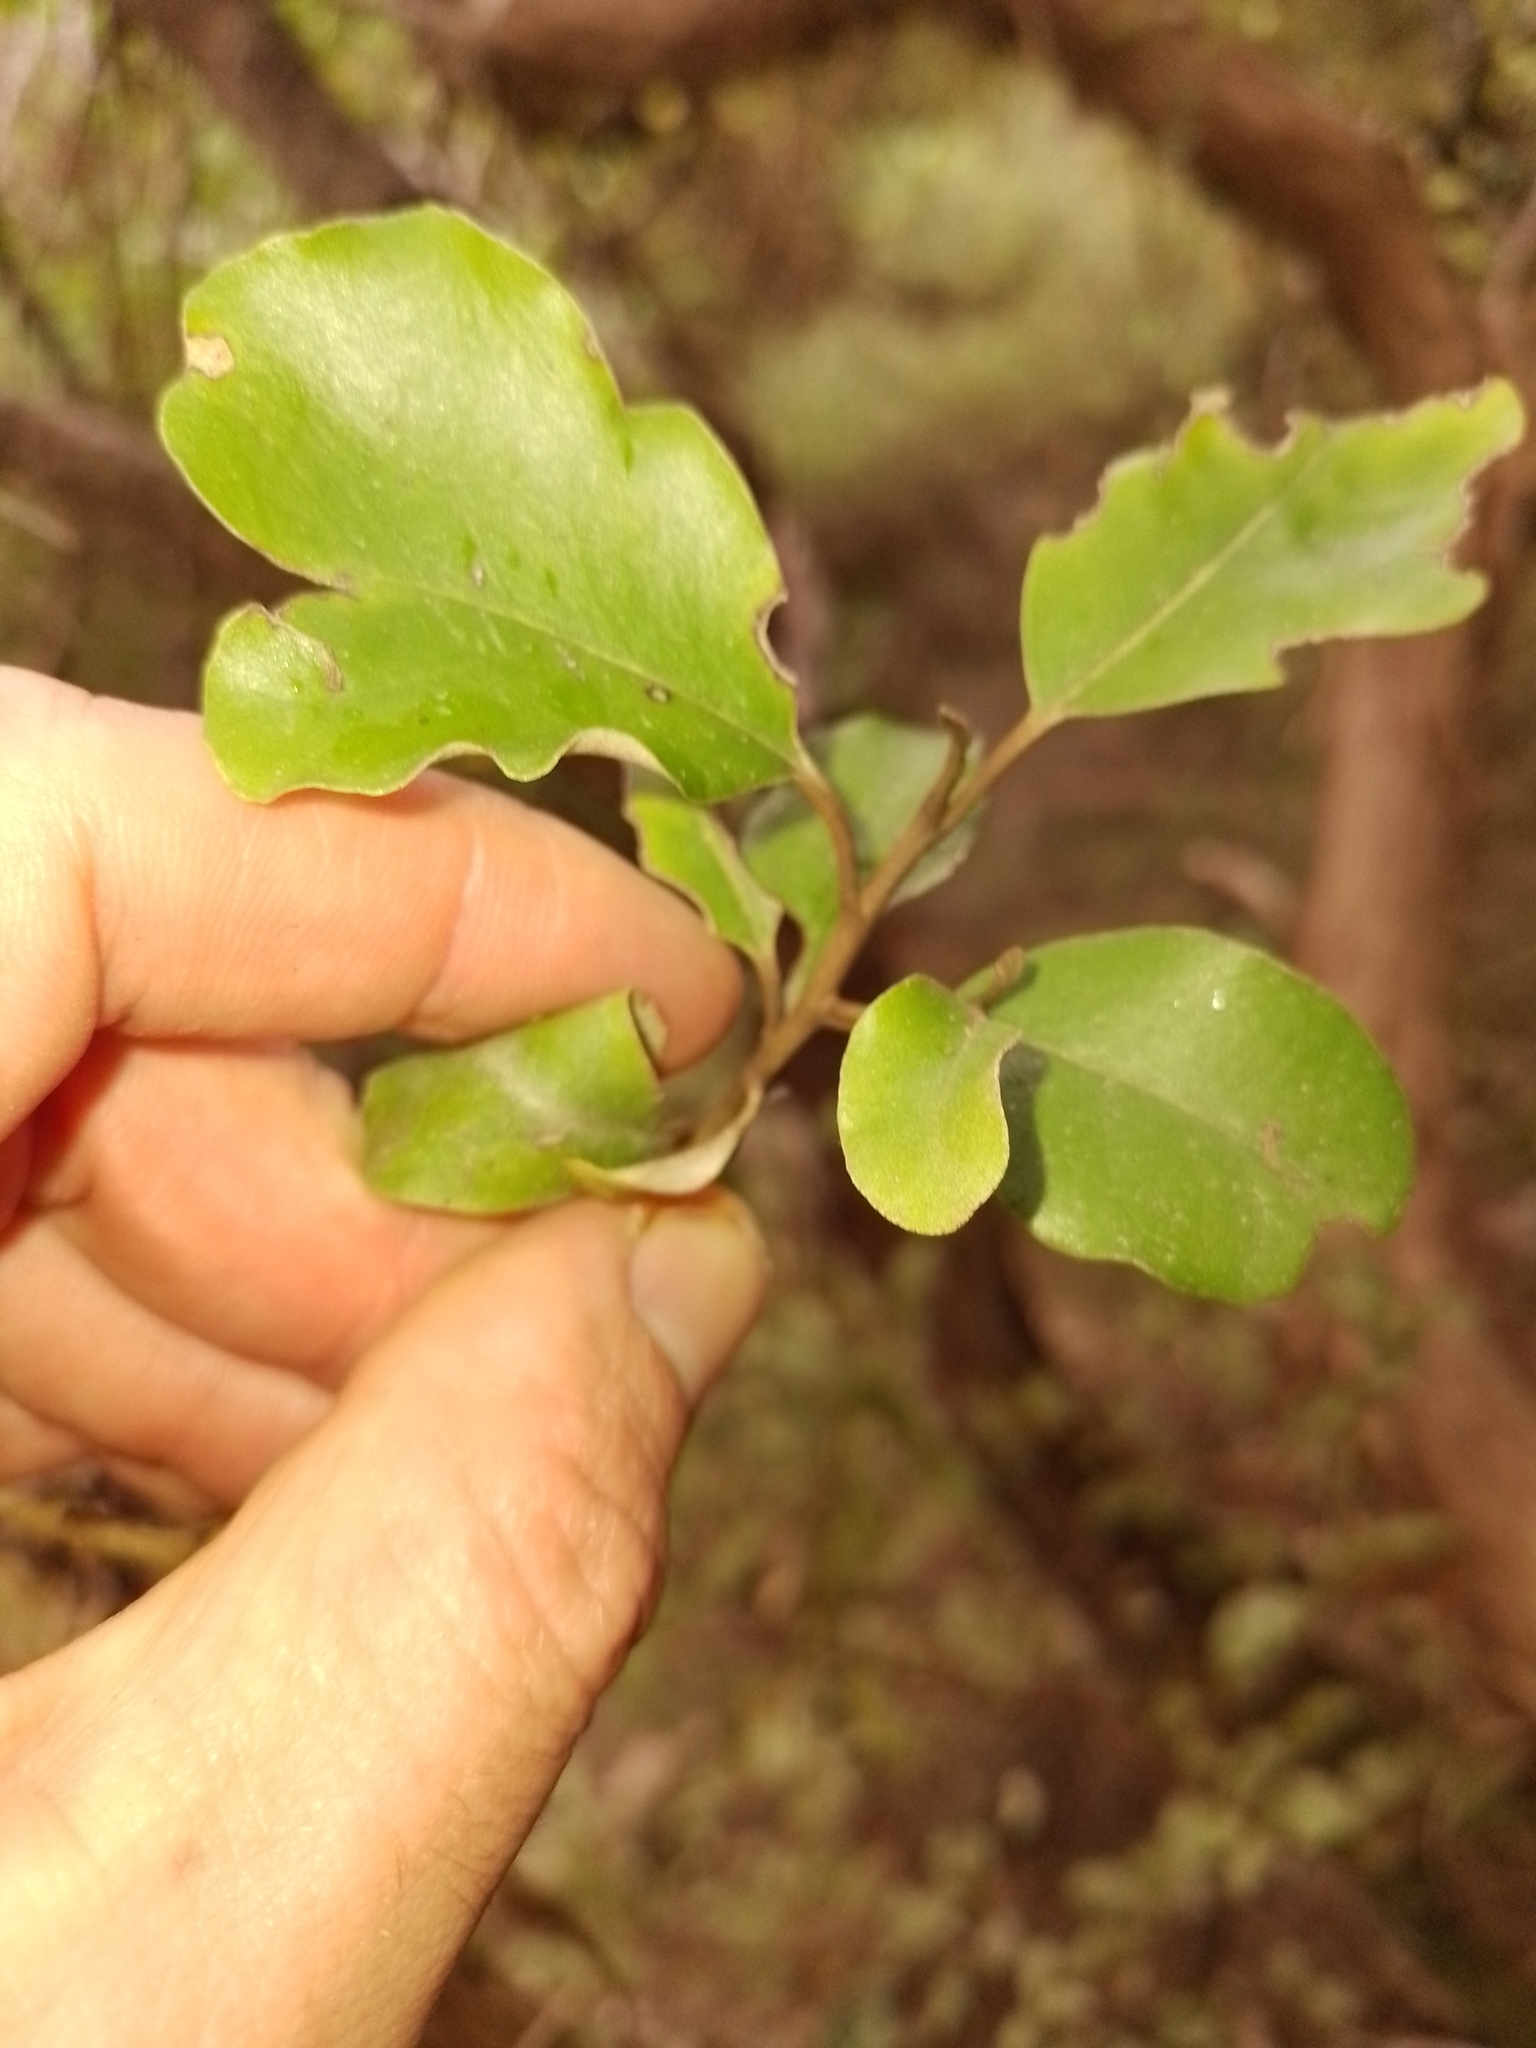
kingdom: Plantae
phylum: Tracheophyta
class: Magnoliopsida
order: Asterales
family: Asteraceae
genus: Olearia
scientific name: Olearia paniculata
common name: Akiraho
